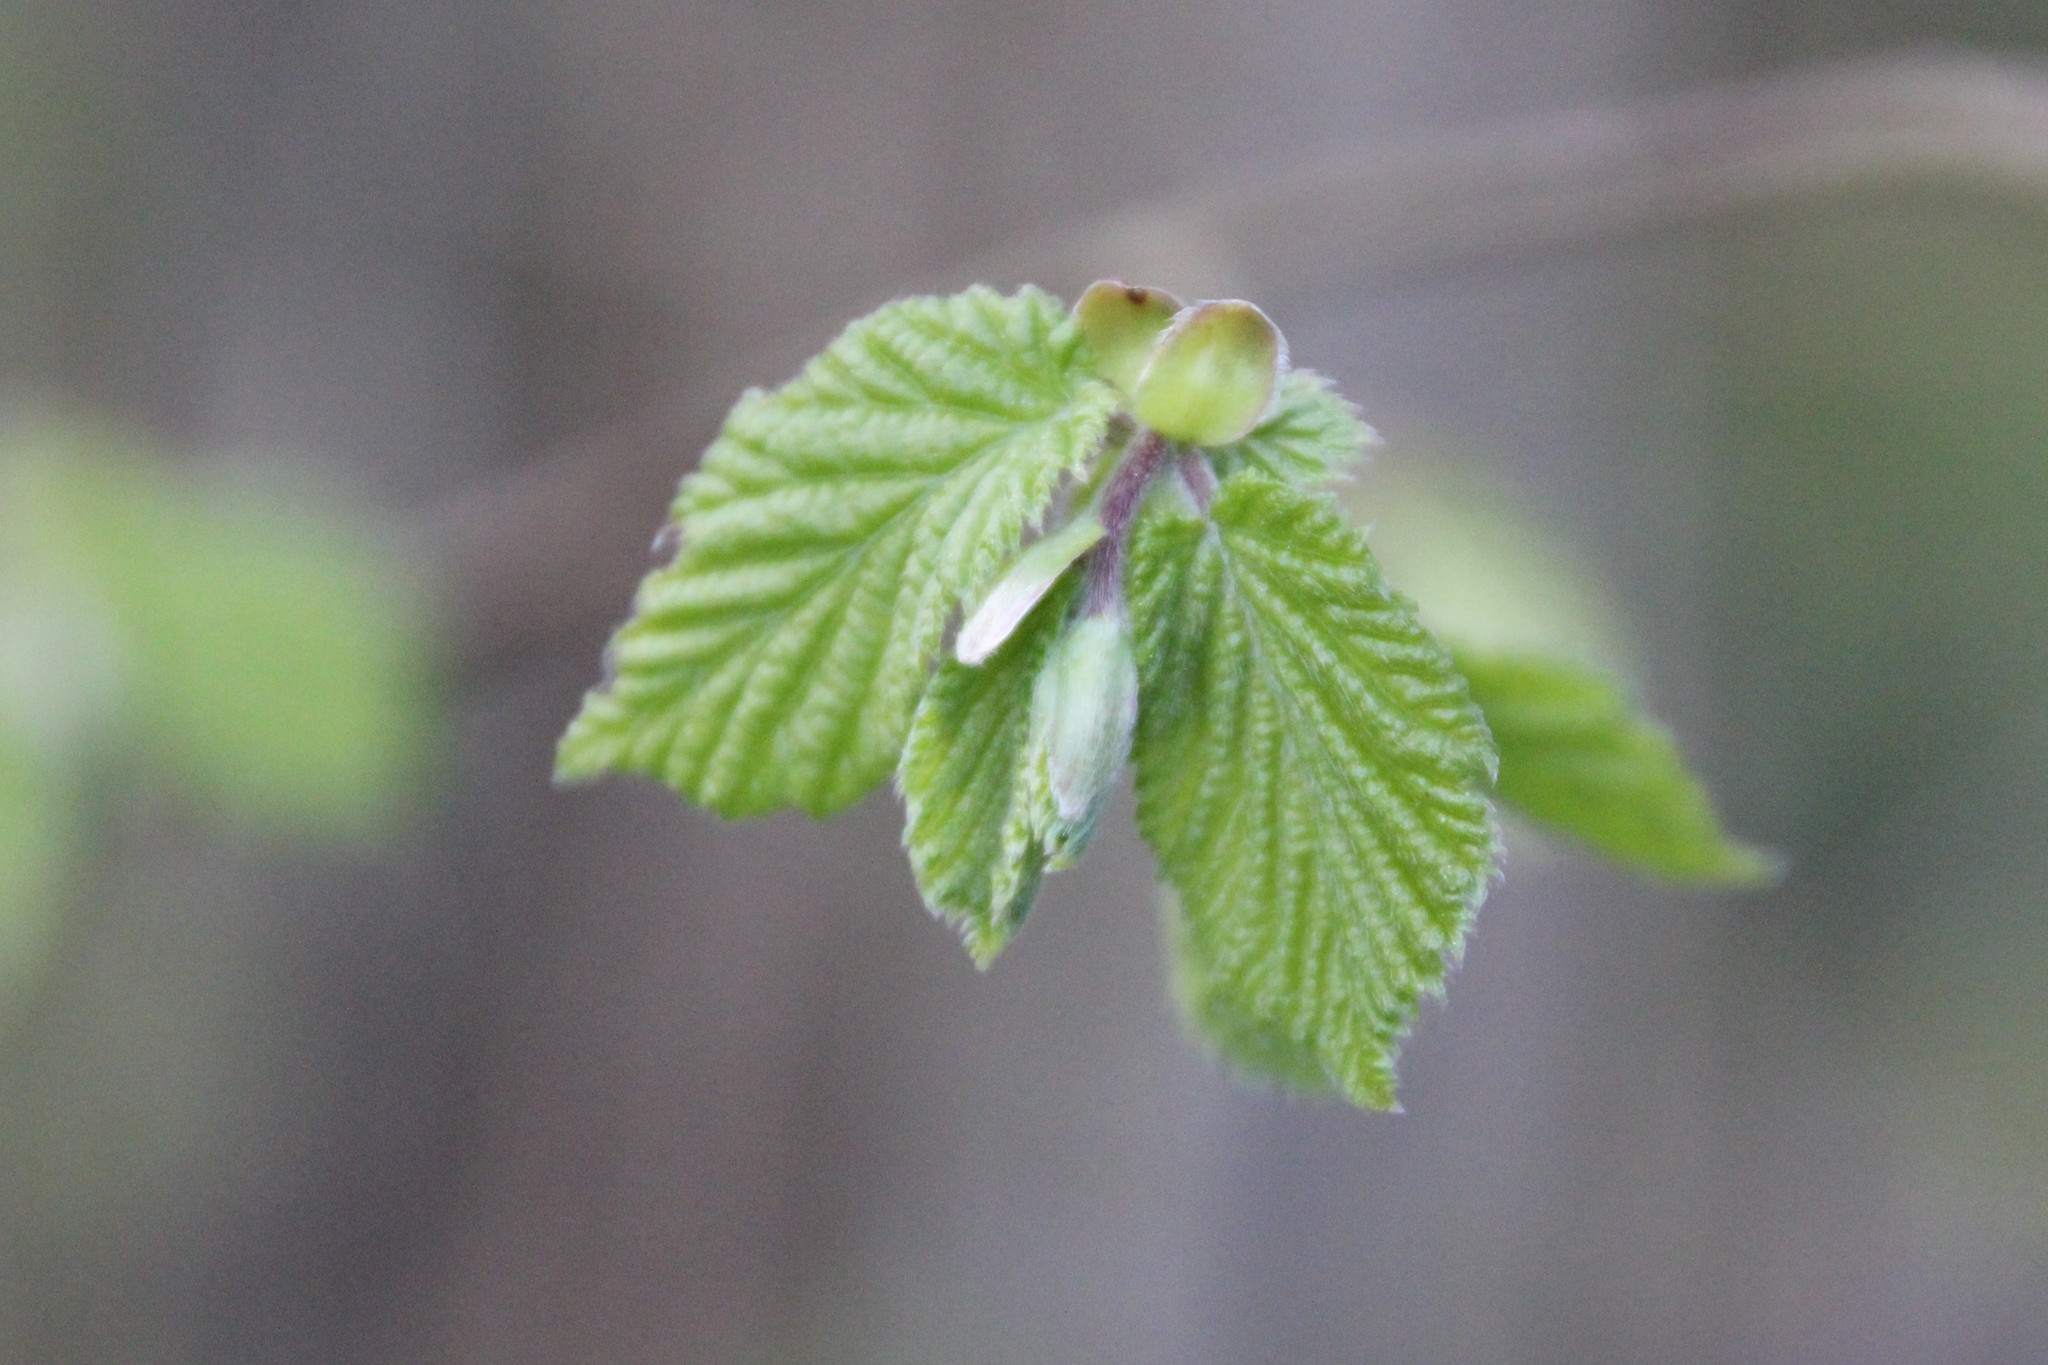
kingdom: Plantae
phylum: Tracheophyta
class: Magnoliopsida
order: Fagales
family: Betulaceae
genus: Corylus
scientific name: Corylus avellana
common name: European hazel
